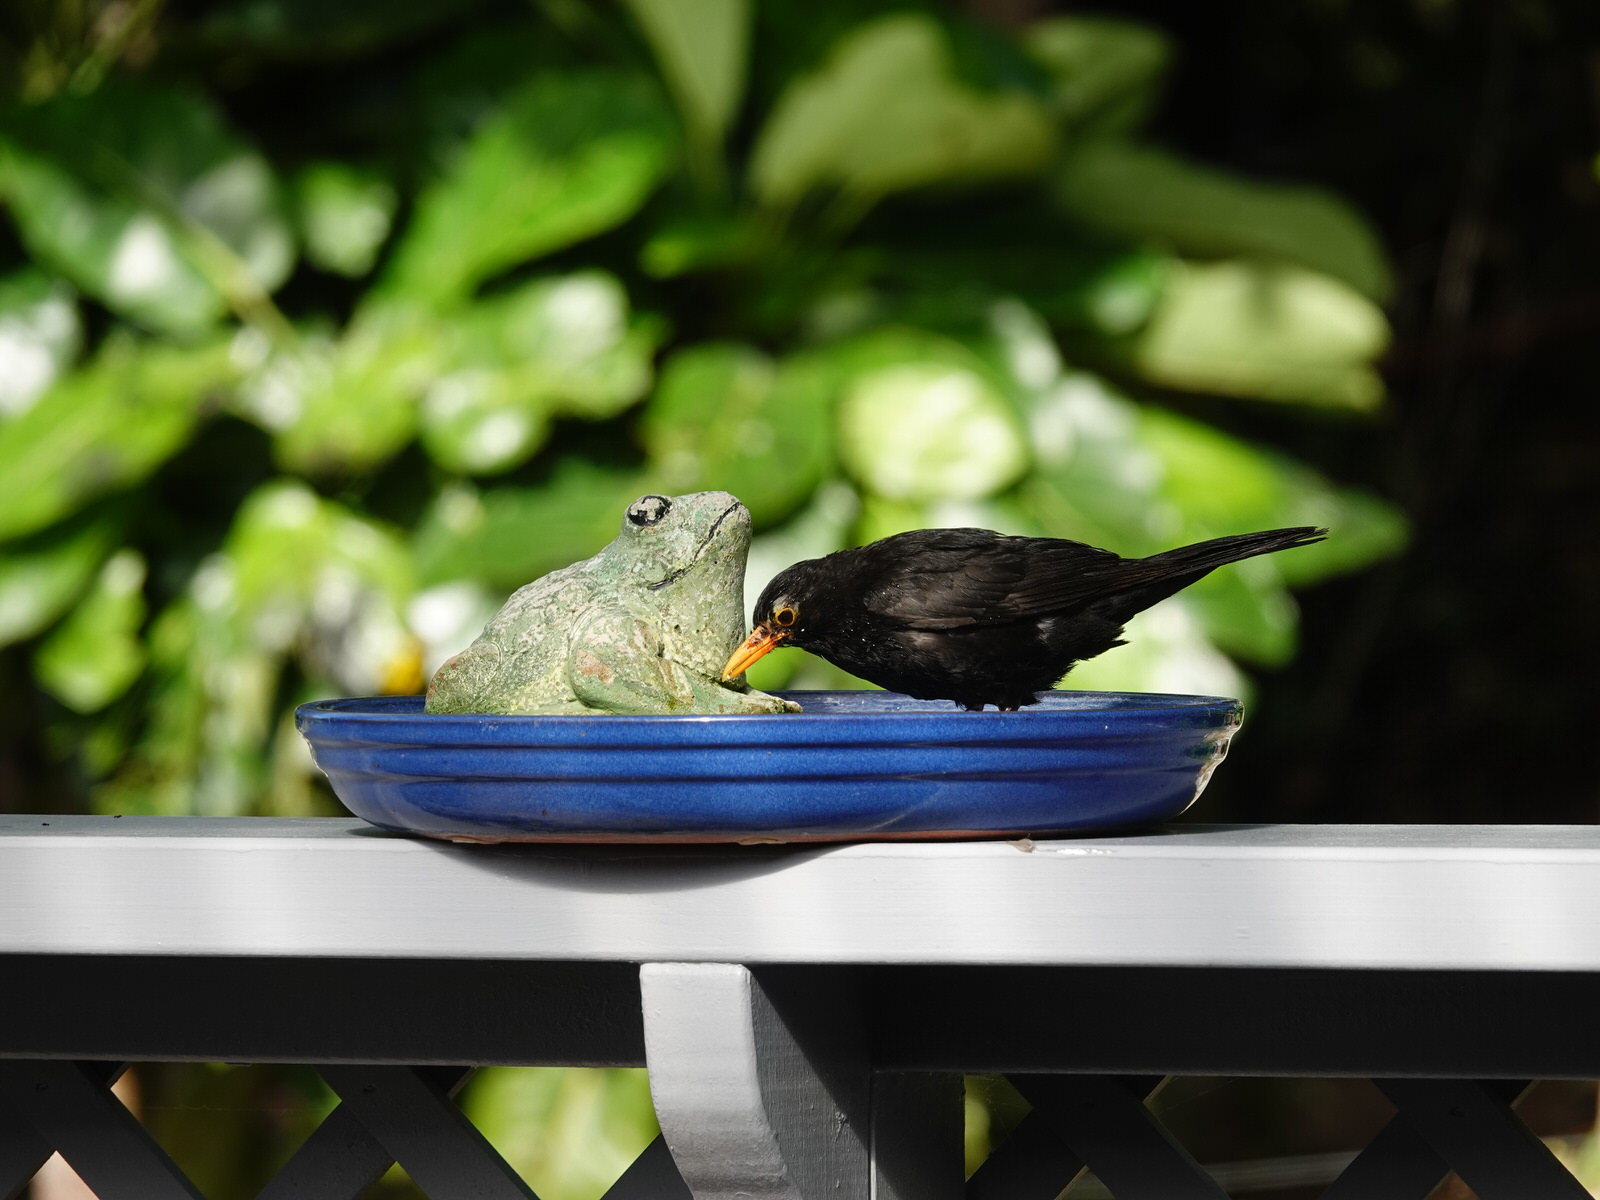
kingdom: Animalia
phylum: Chordata
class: Aves
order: Passeriformes
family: Turdidae
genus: Turdus
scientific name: Turdus merula
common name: Common blackbird
